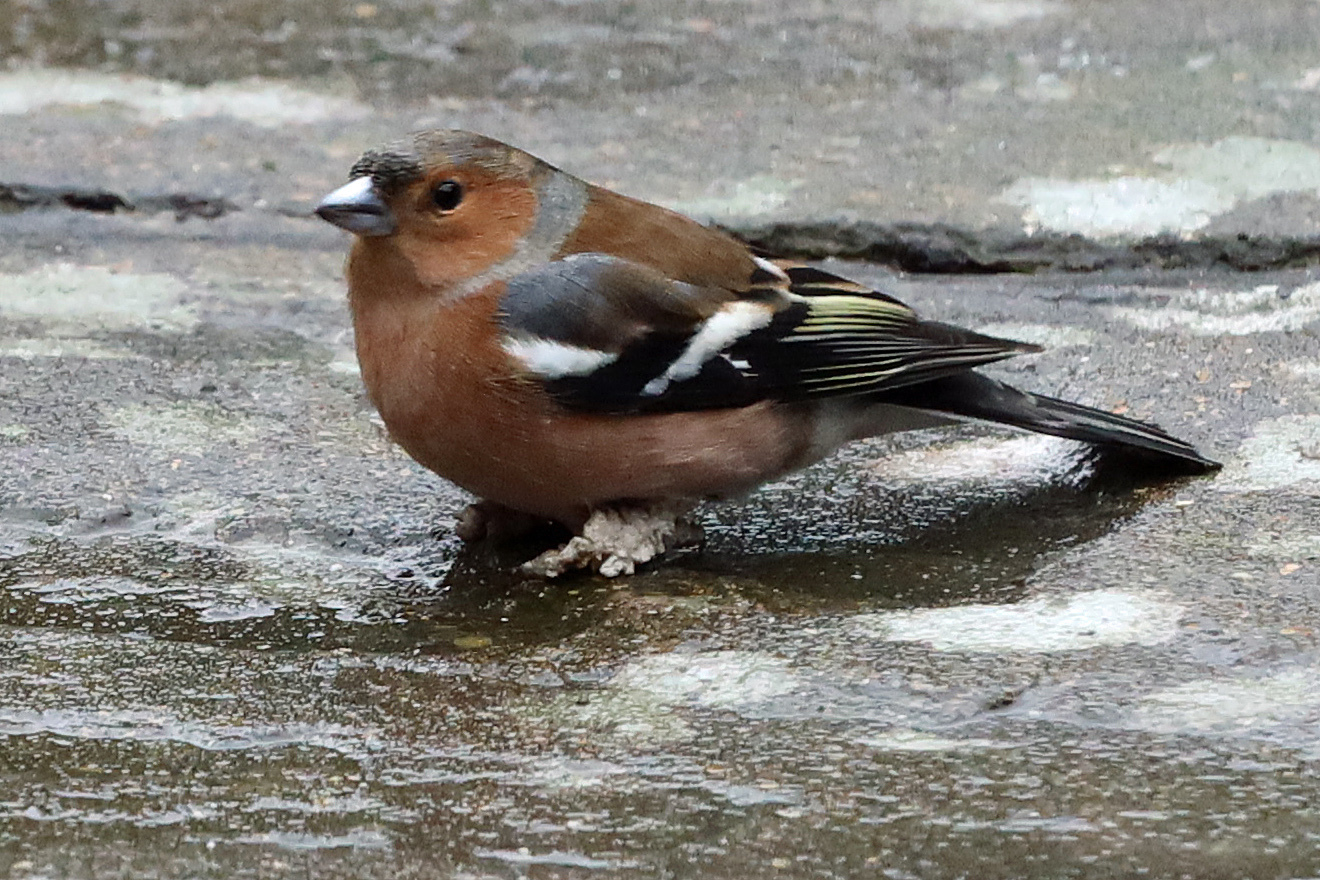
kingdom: Animalia
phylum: Chordata
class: Aves
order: Passeriformes
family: Fringillidae
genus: Fringilla
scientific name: Fringilla coelebs
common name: Common chaffinch
